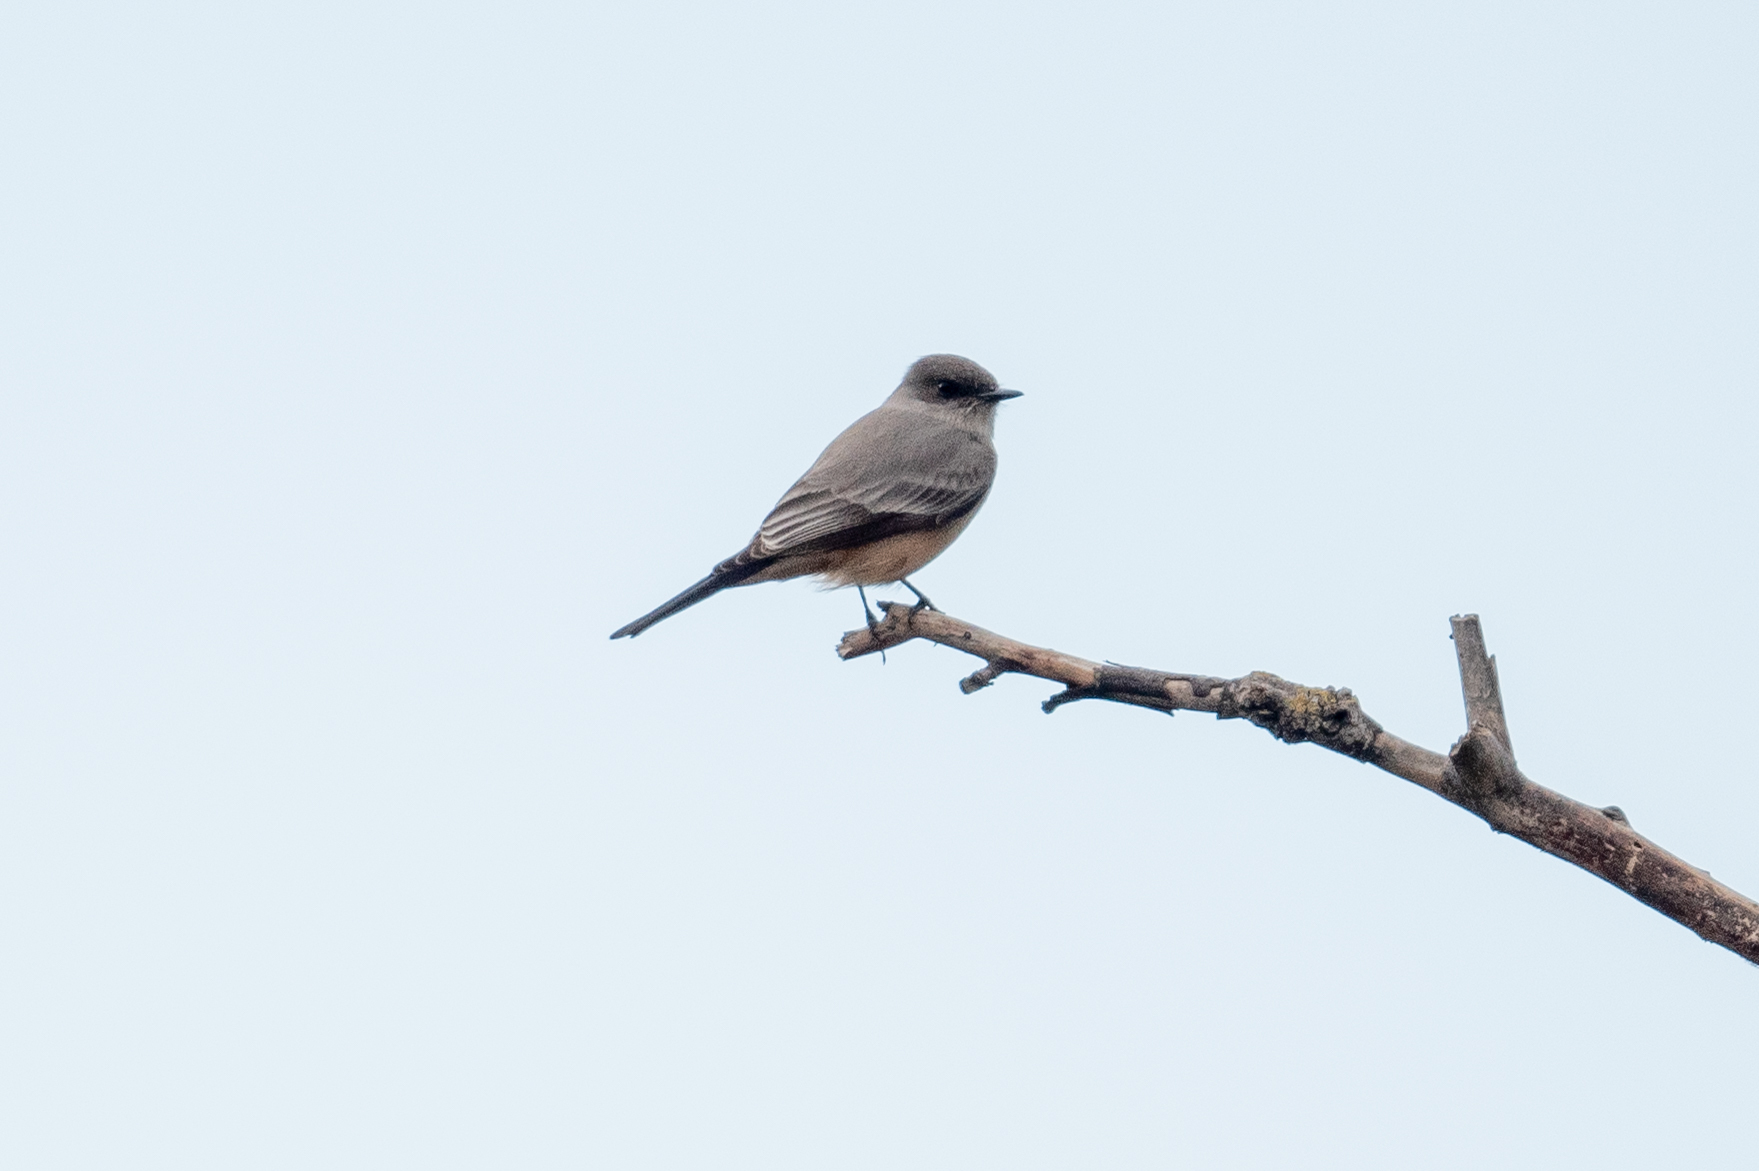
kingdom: Animalia
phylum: Chordata
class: Aves
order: Passeriformes
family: Tyrannidae
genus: Sayornis
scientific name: Sayornis saya
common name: Say's phoebe
